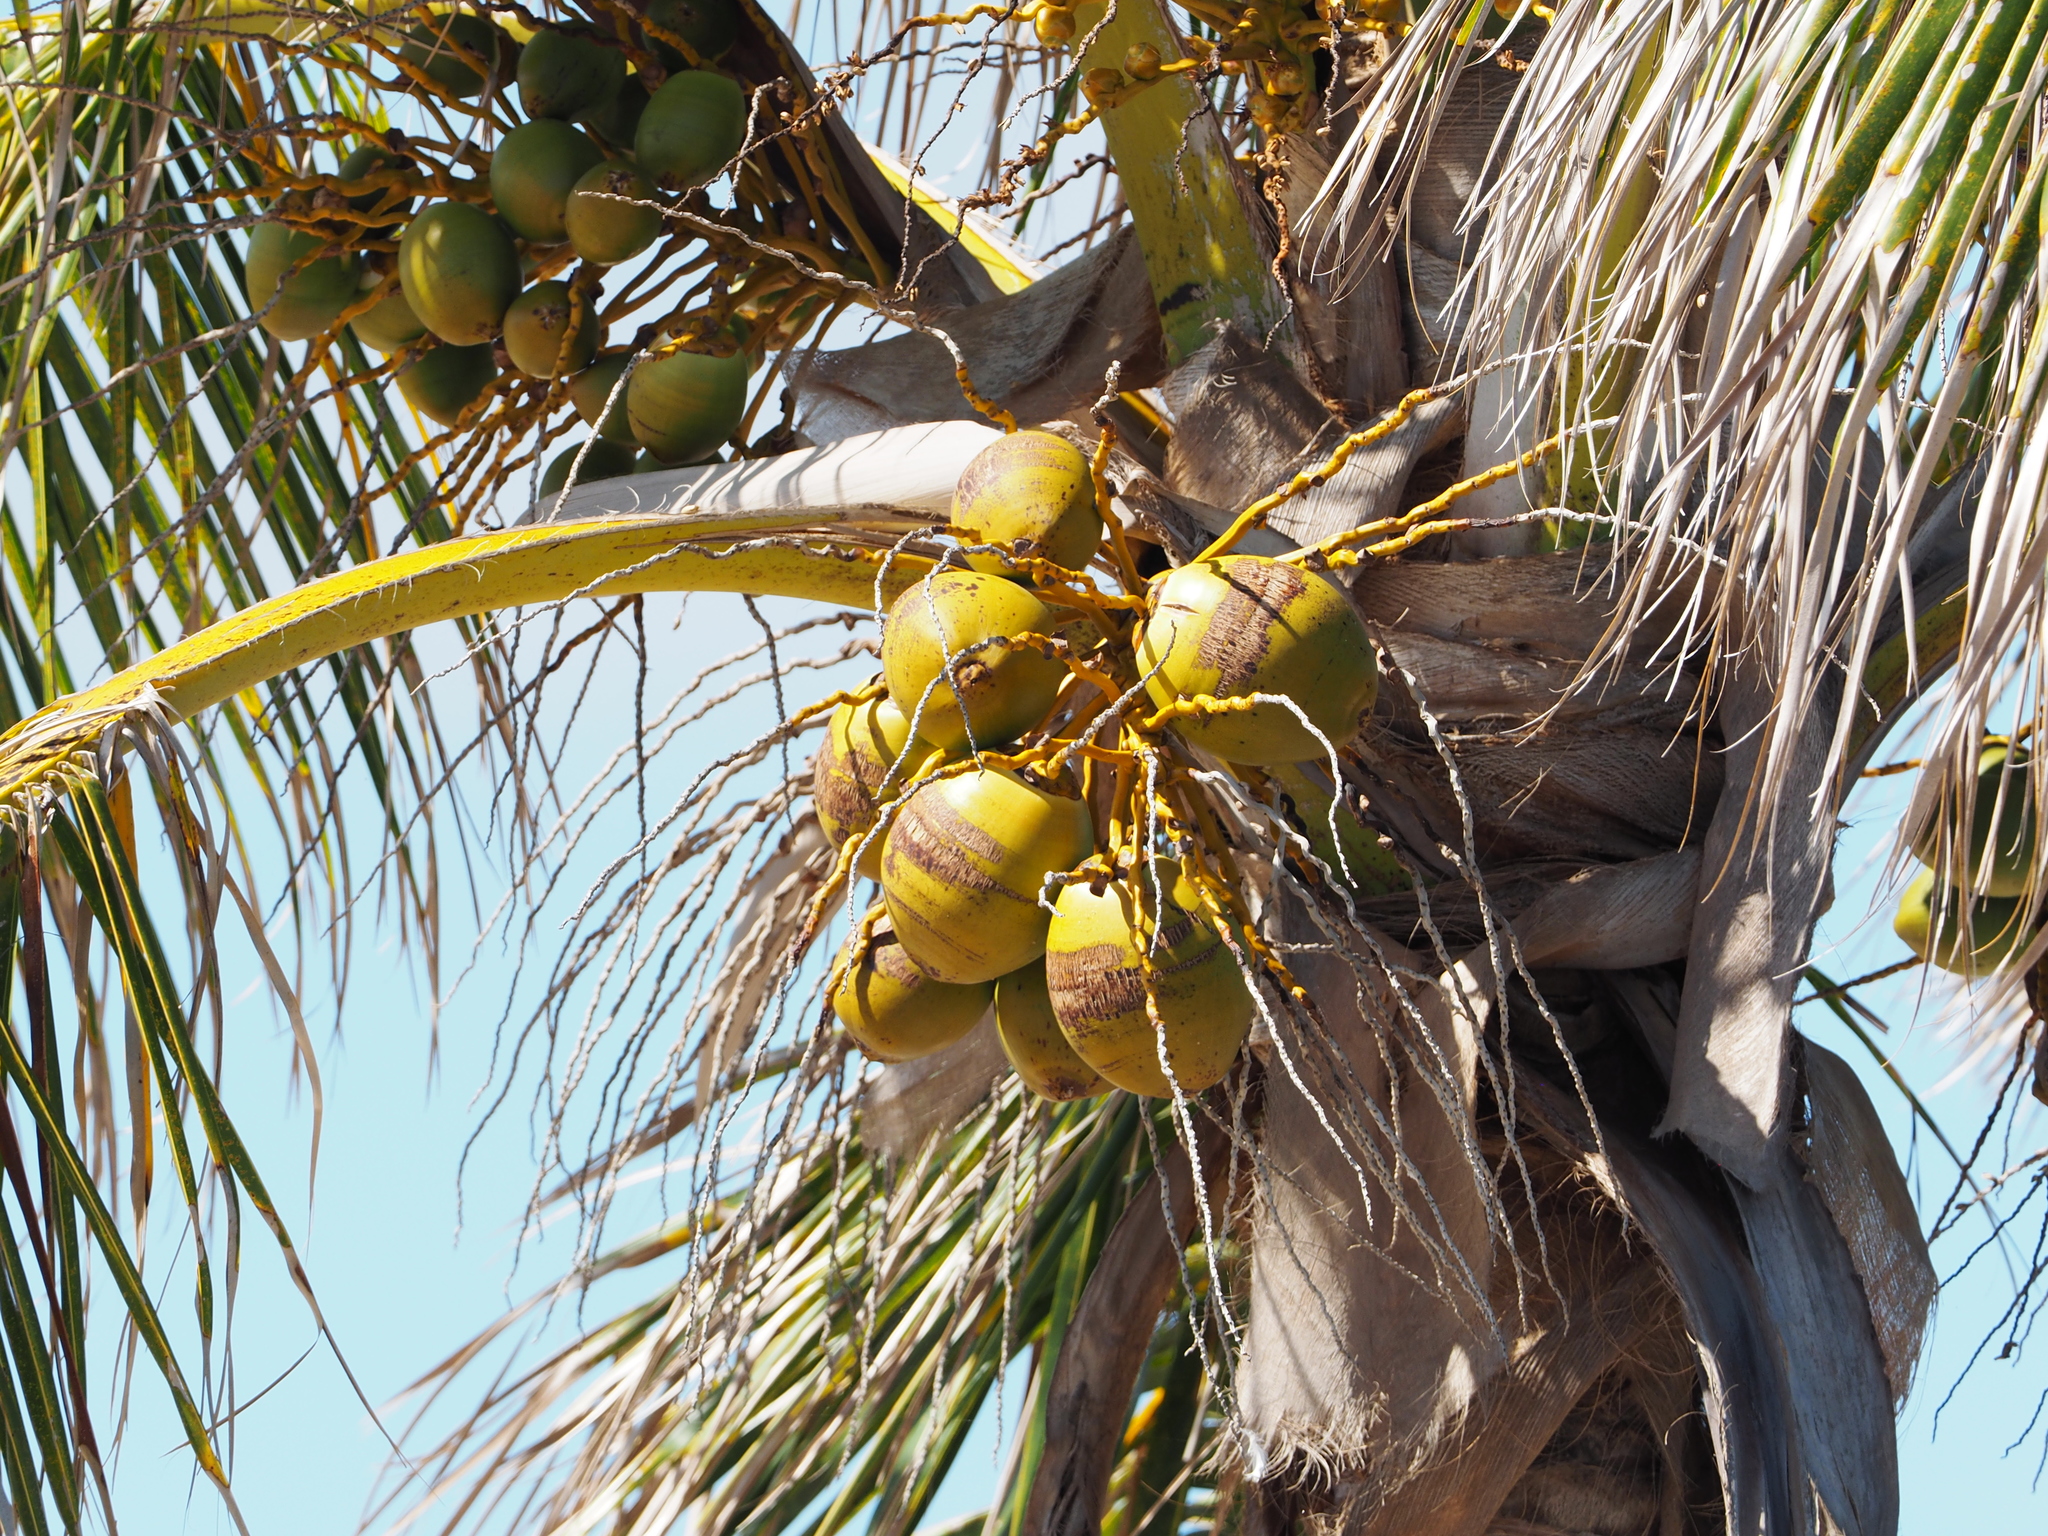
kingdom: Plantae
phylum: Tracheophyta
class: Liliopsida
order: Arecales
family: Arecaceae
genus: Cocos
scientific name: Cocos nucifera
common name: Coconut palm
